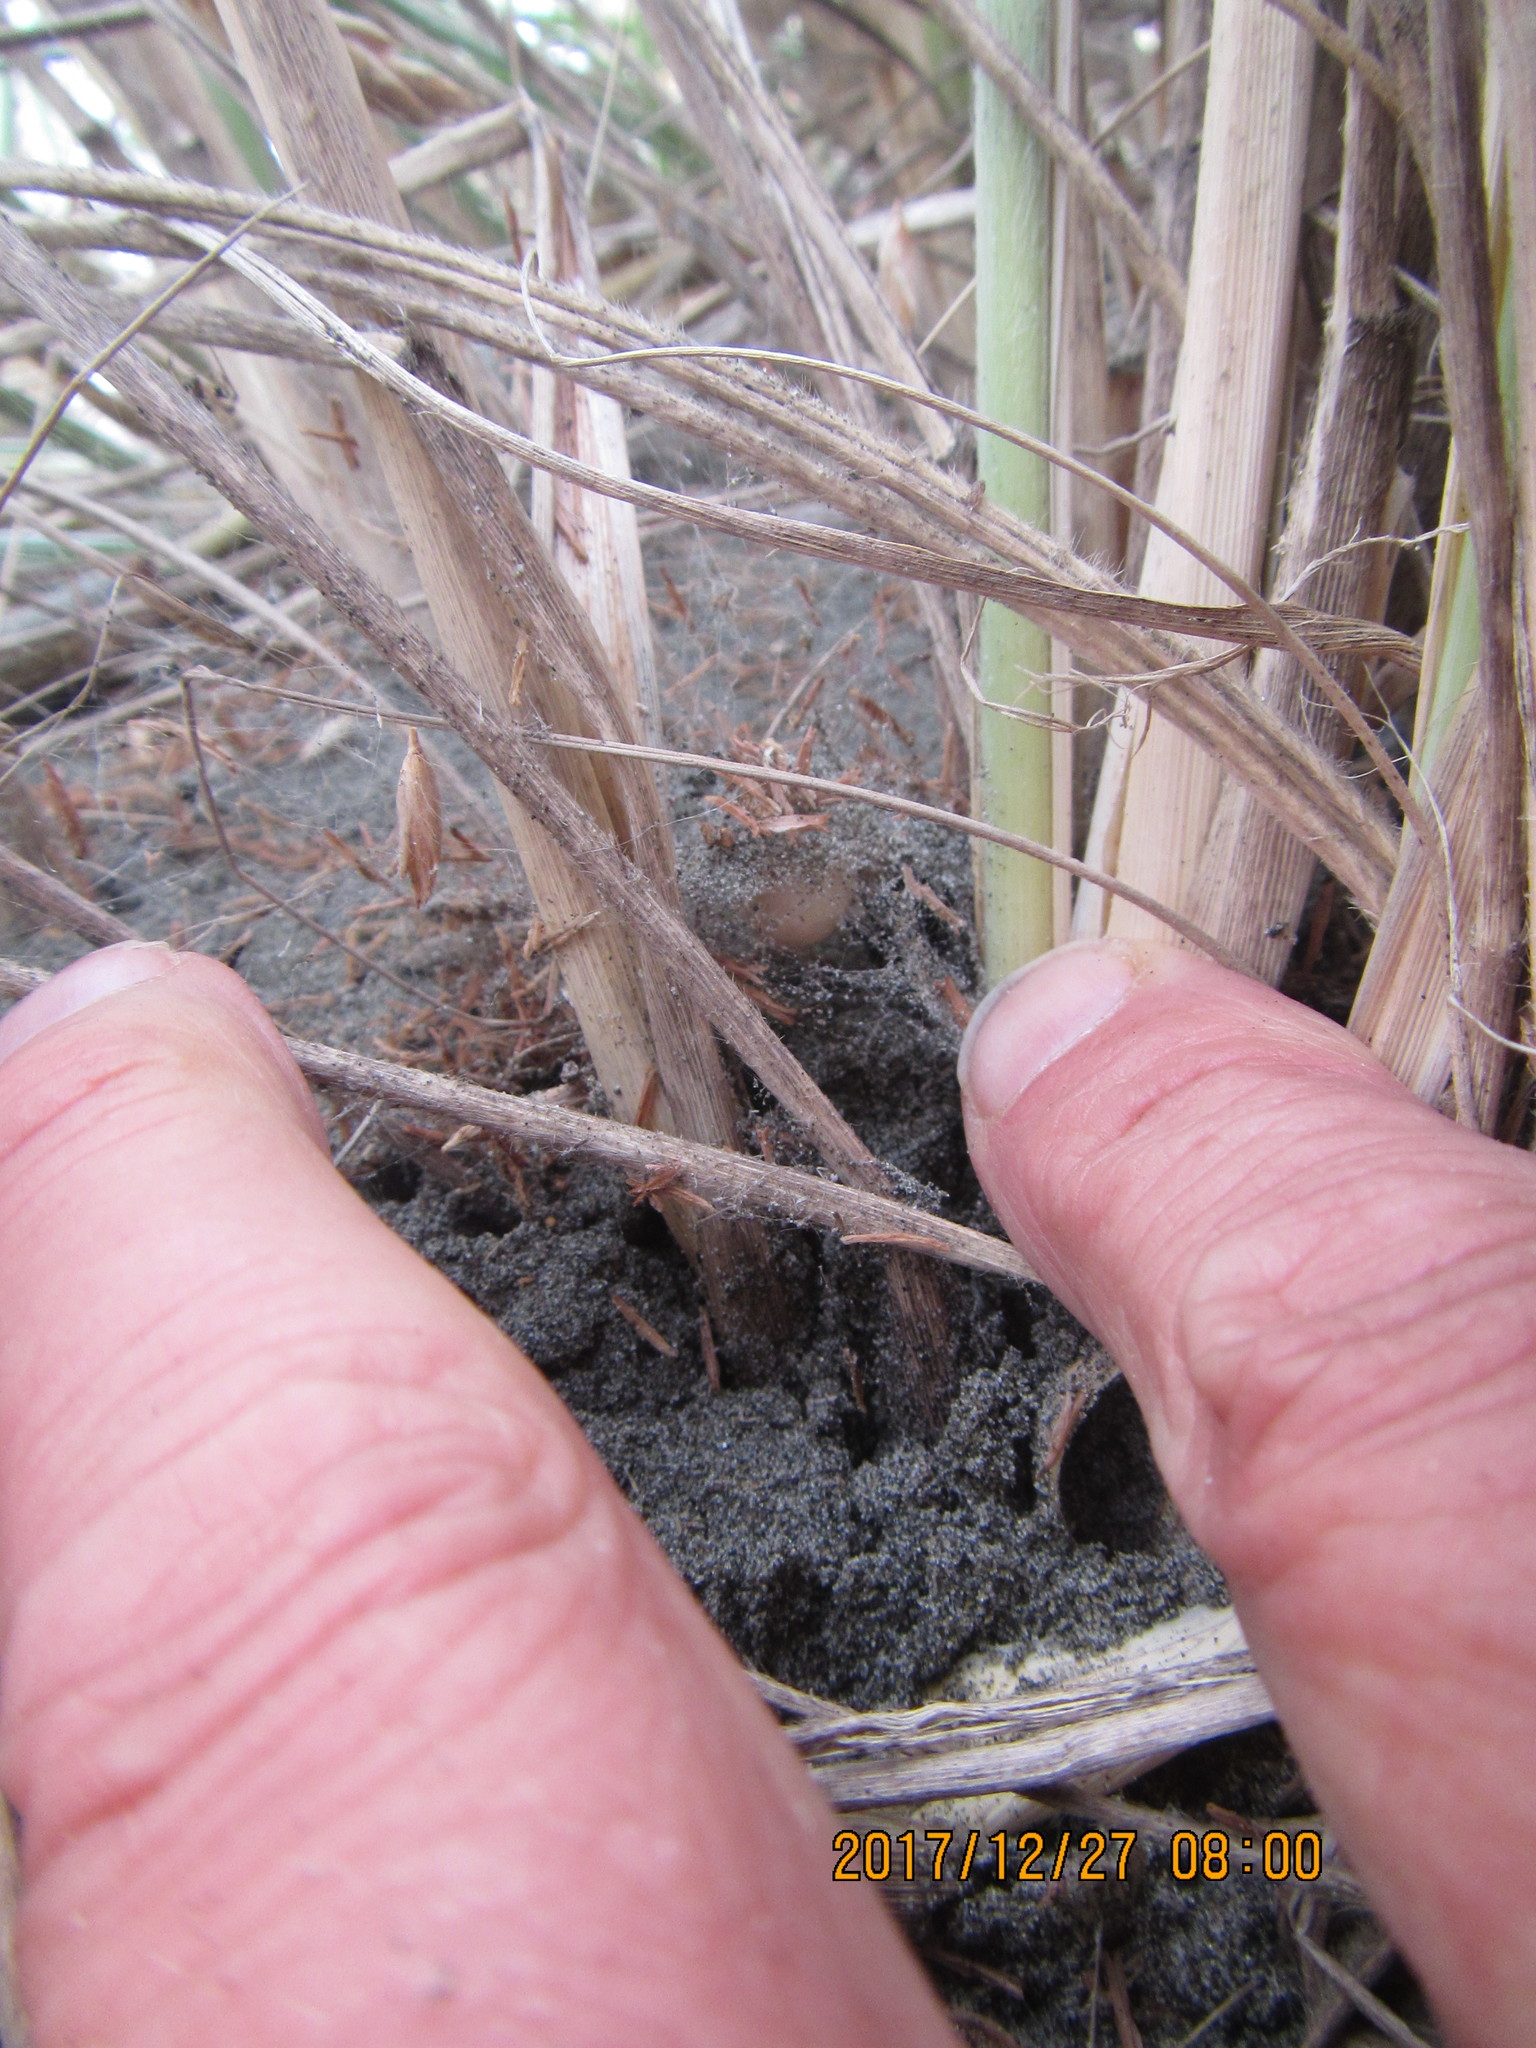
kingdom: Animalia
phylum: Arthropoda
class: Arachnida
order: Araneae
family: Theridiidae
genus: Latrodectus
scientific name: Latrodectus katipo
